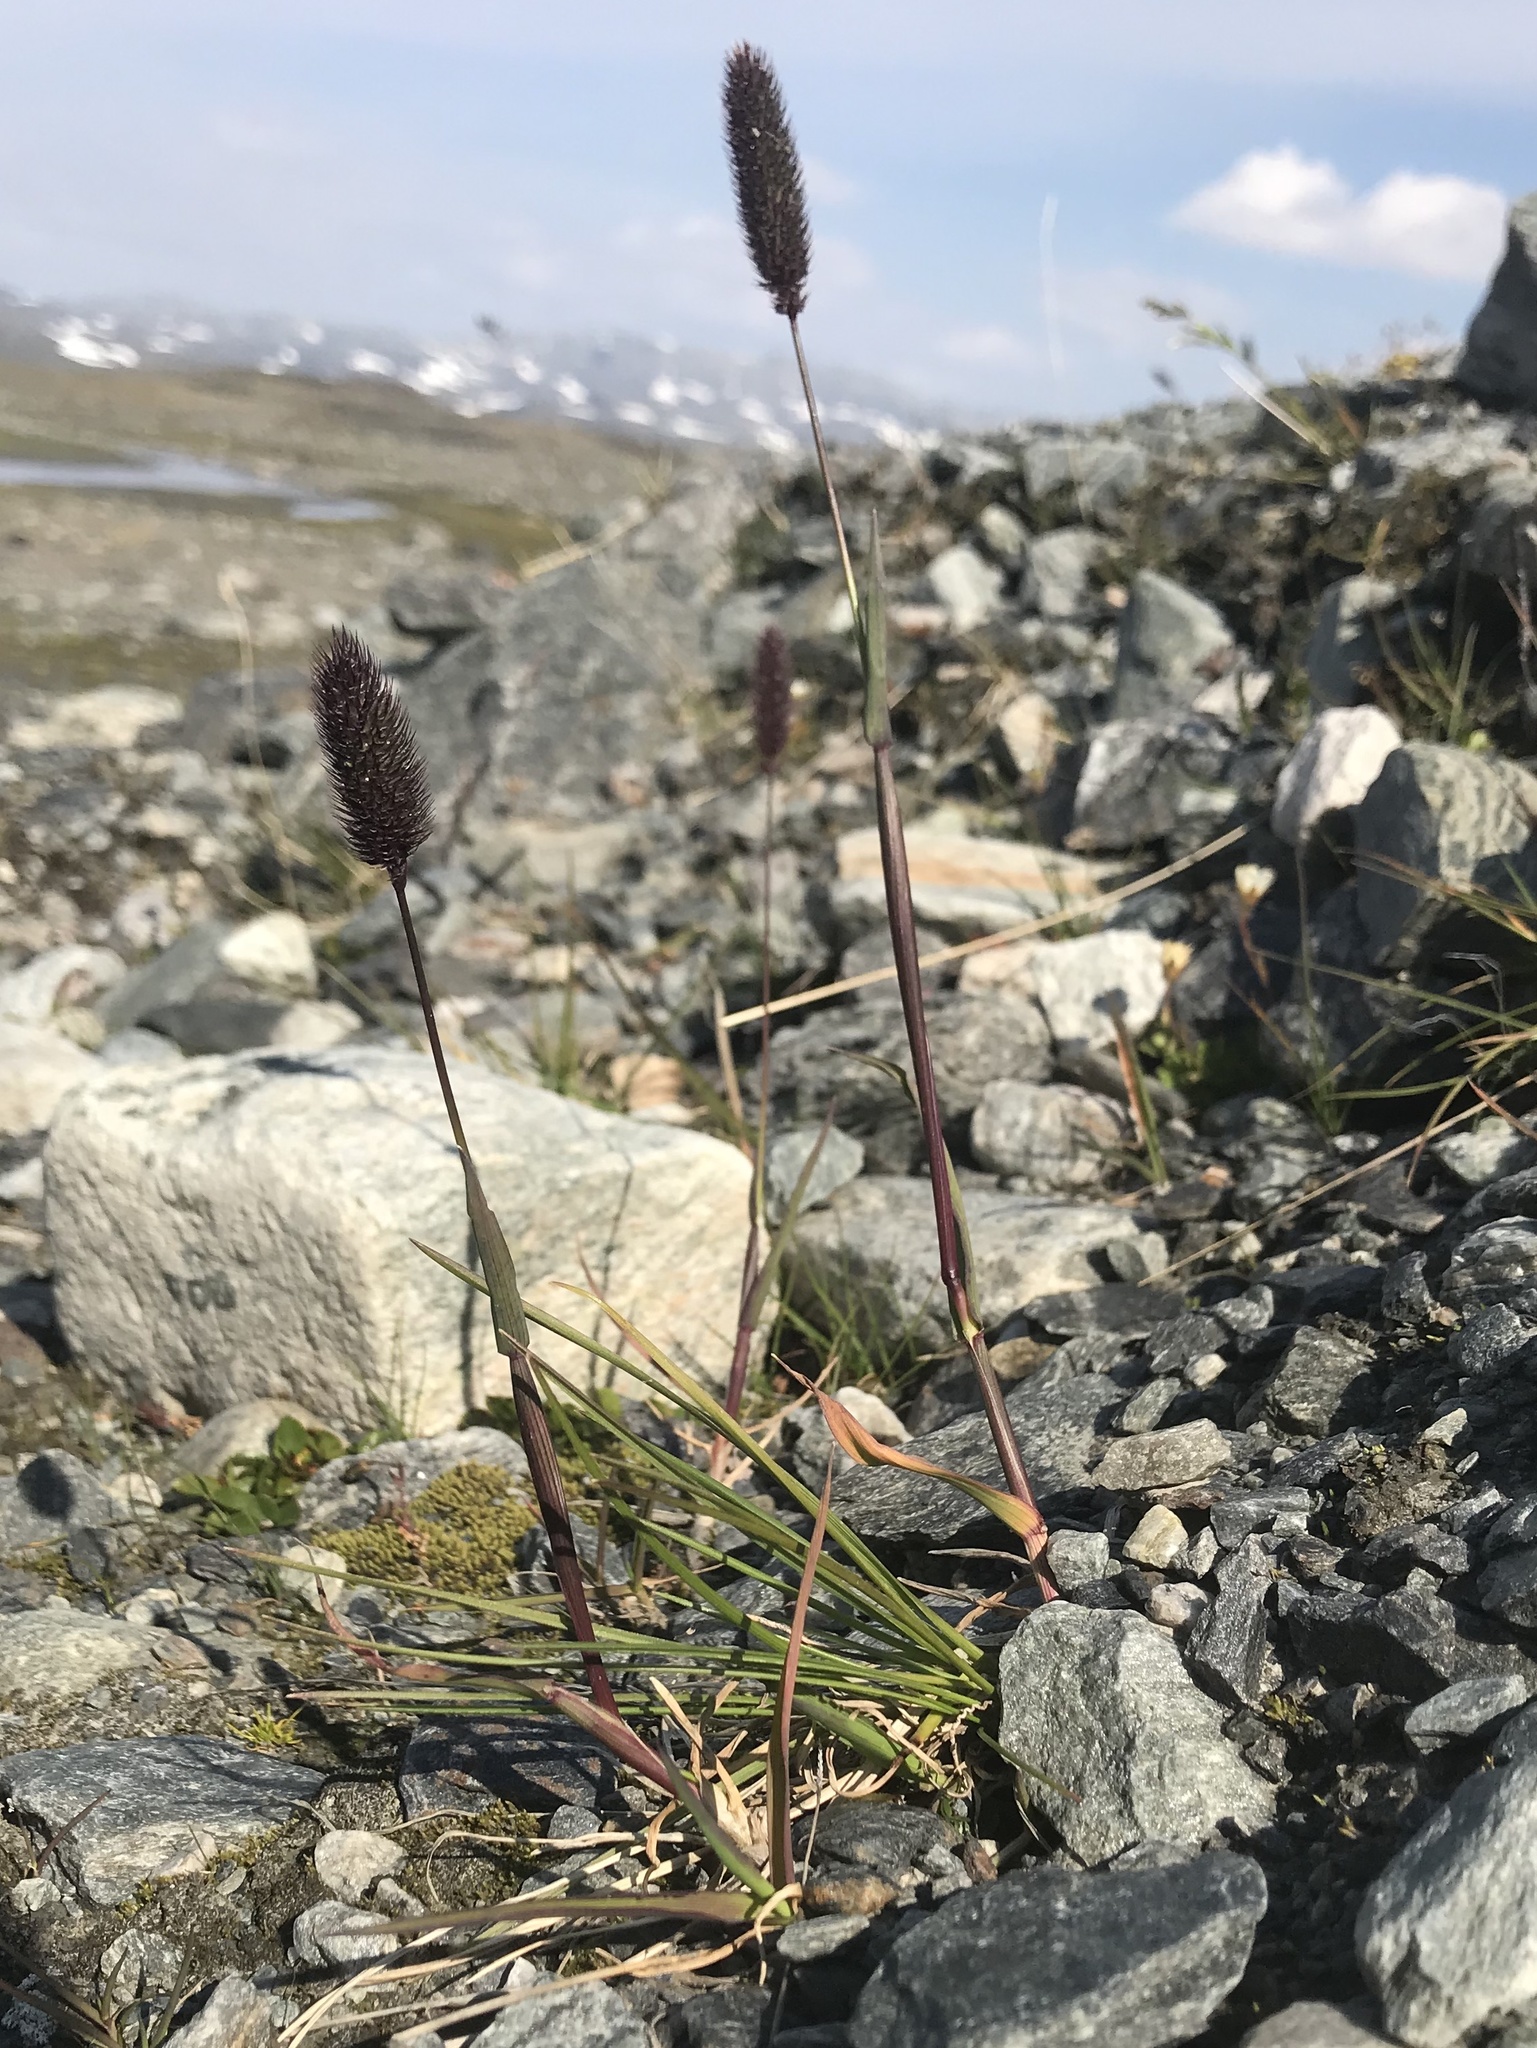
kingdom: Plantae
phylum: Tracheophyta
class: Liliopsida
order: Poales
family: Poaceae
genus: Phleum
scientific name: Phleum alpinum
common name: Alpine cat's-tail
